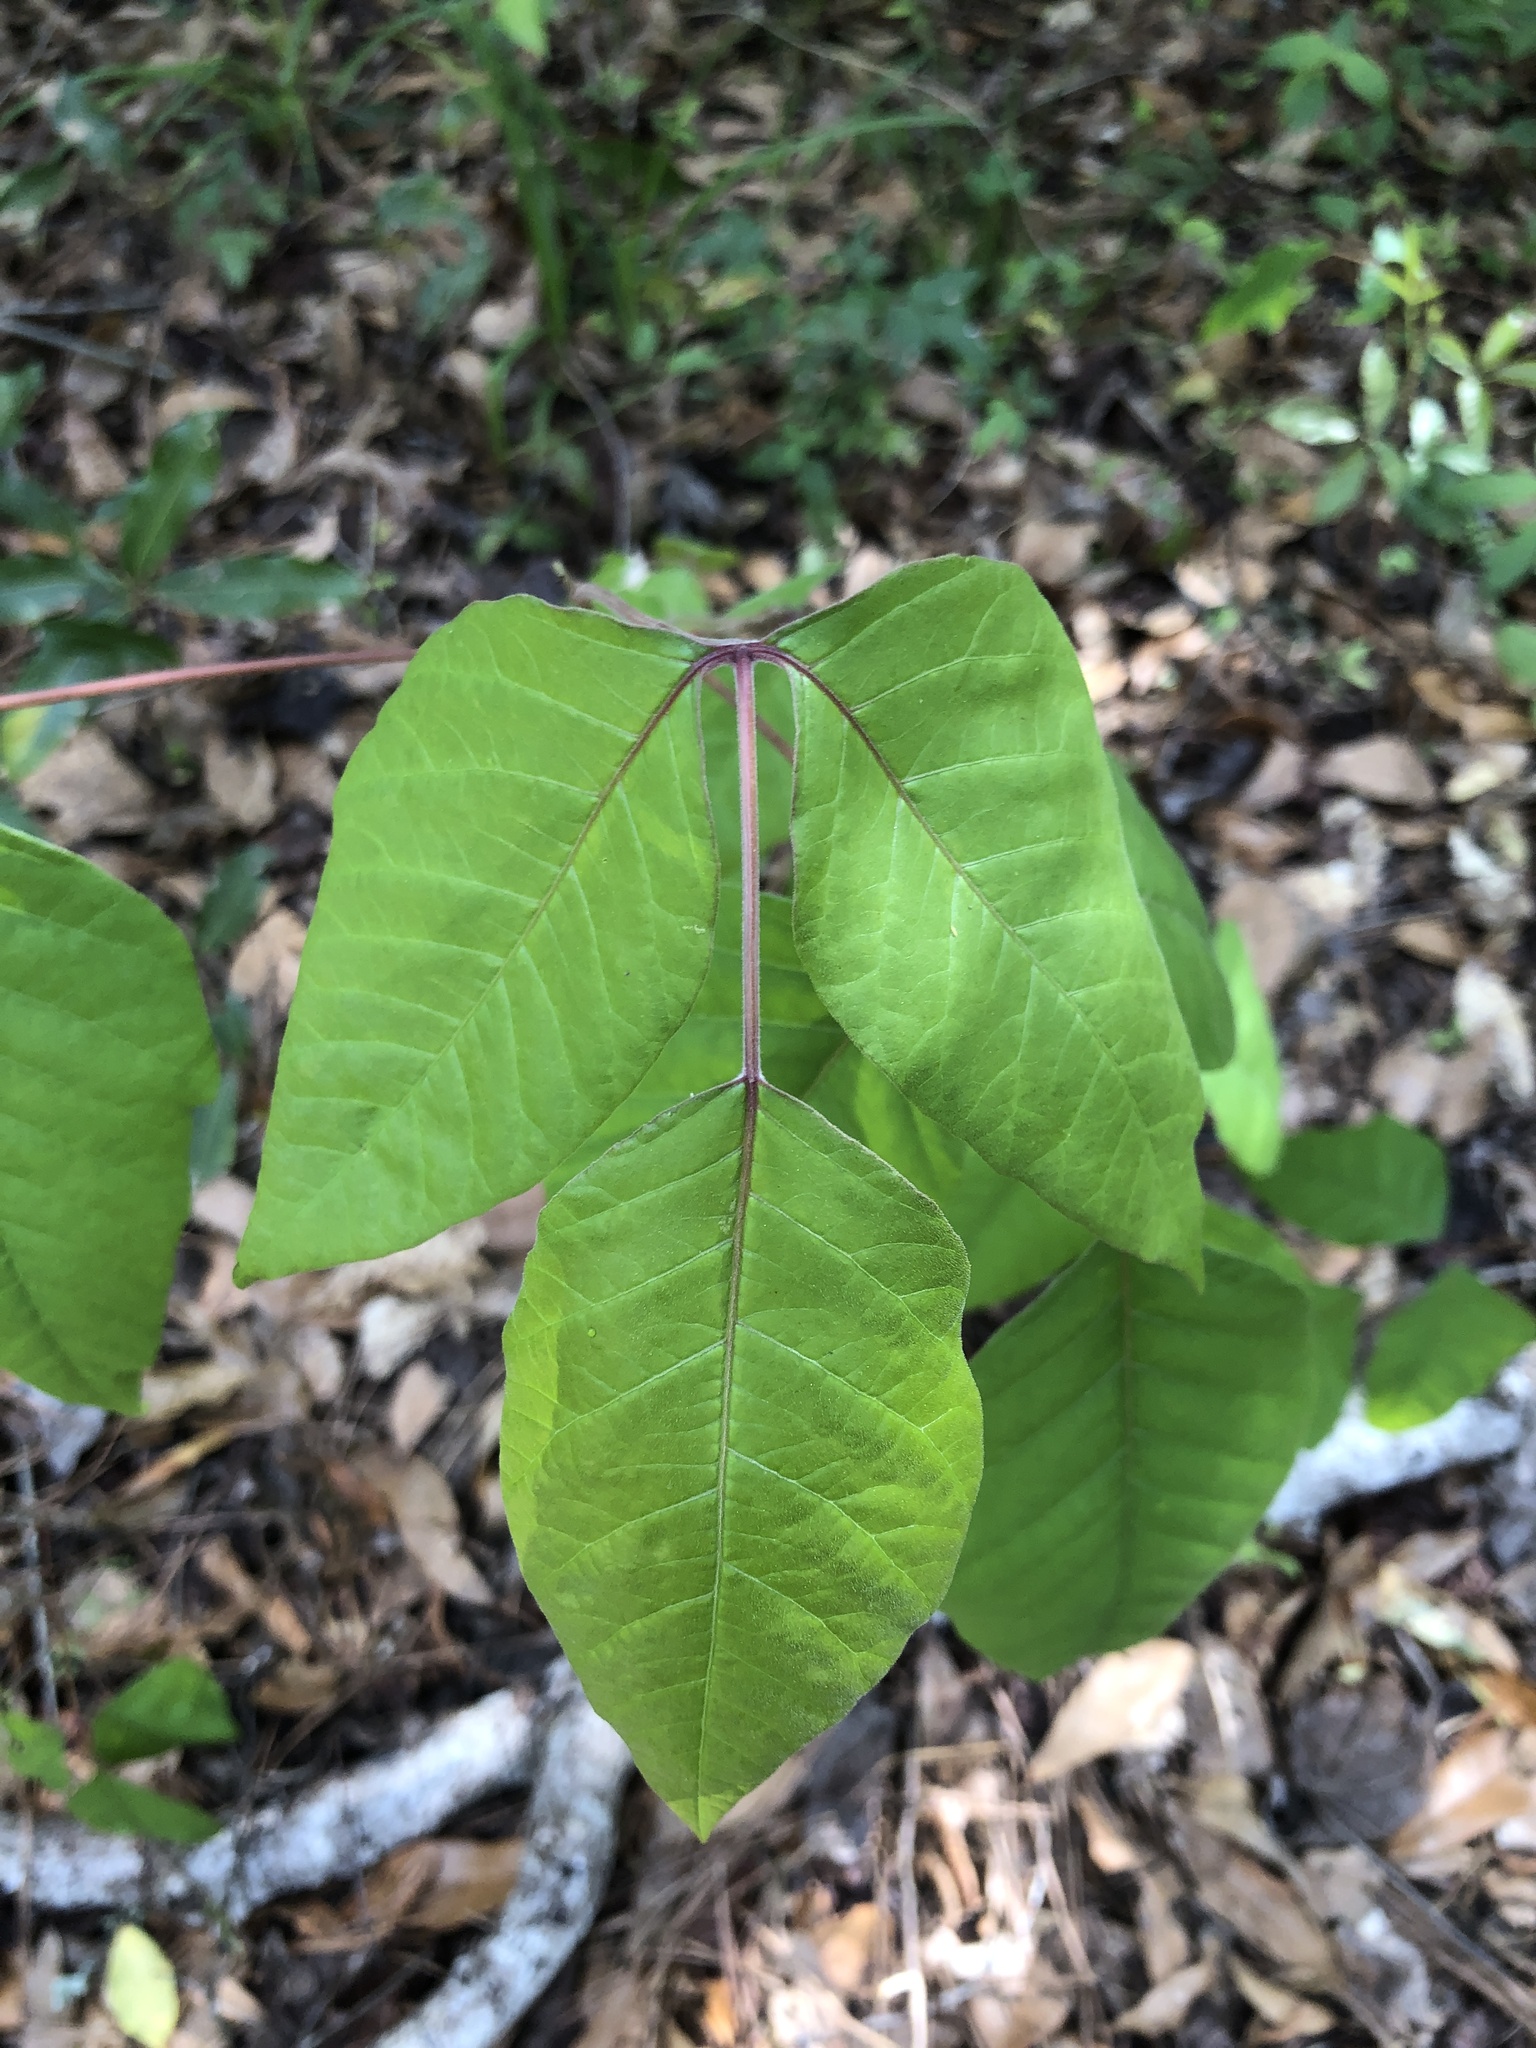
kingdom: Plantae
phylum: Tracheophyta
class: Magnoliopsida
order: Sapindales
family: Anacardiaceae
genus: Toxicodendron
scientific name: Toxicodendron radicans
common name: Poison ivy
